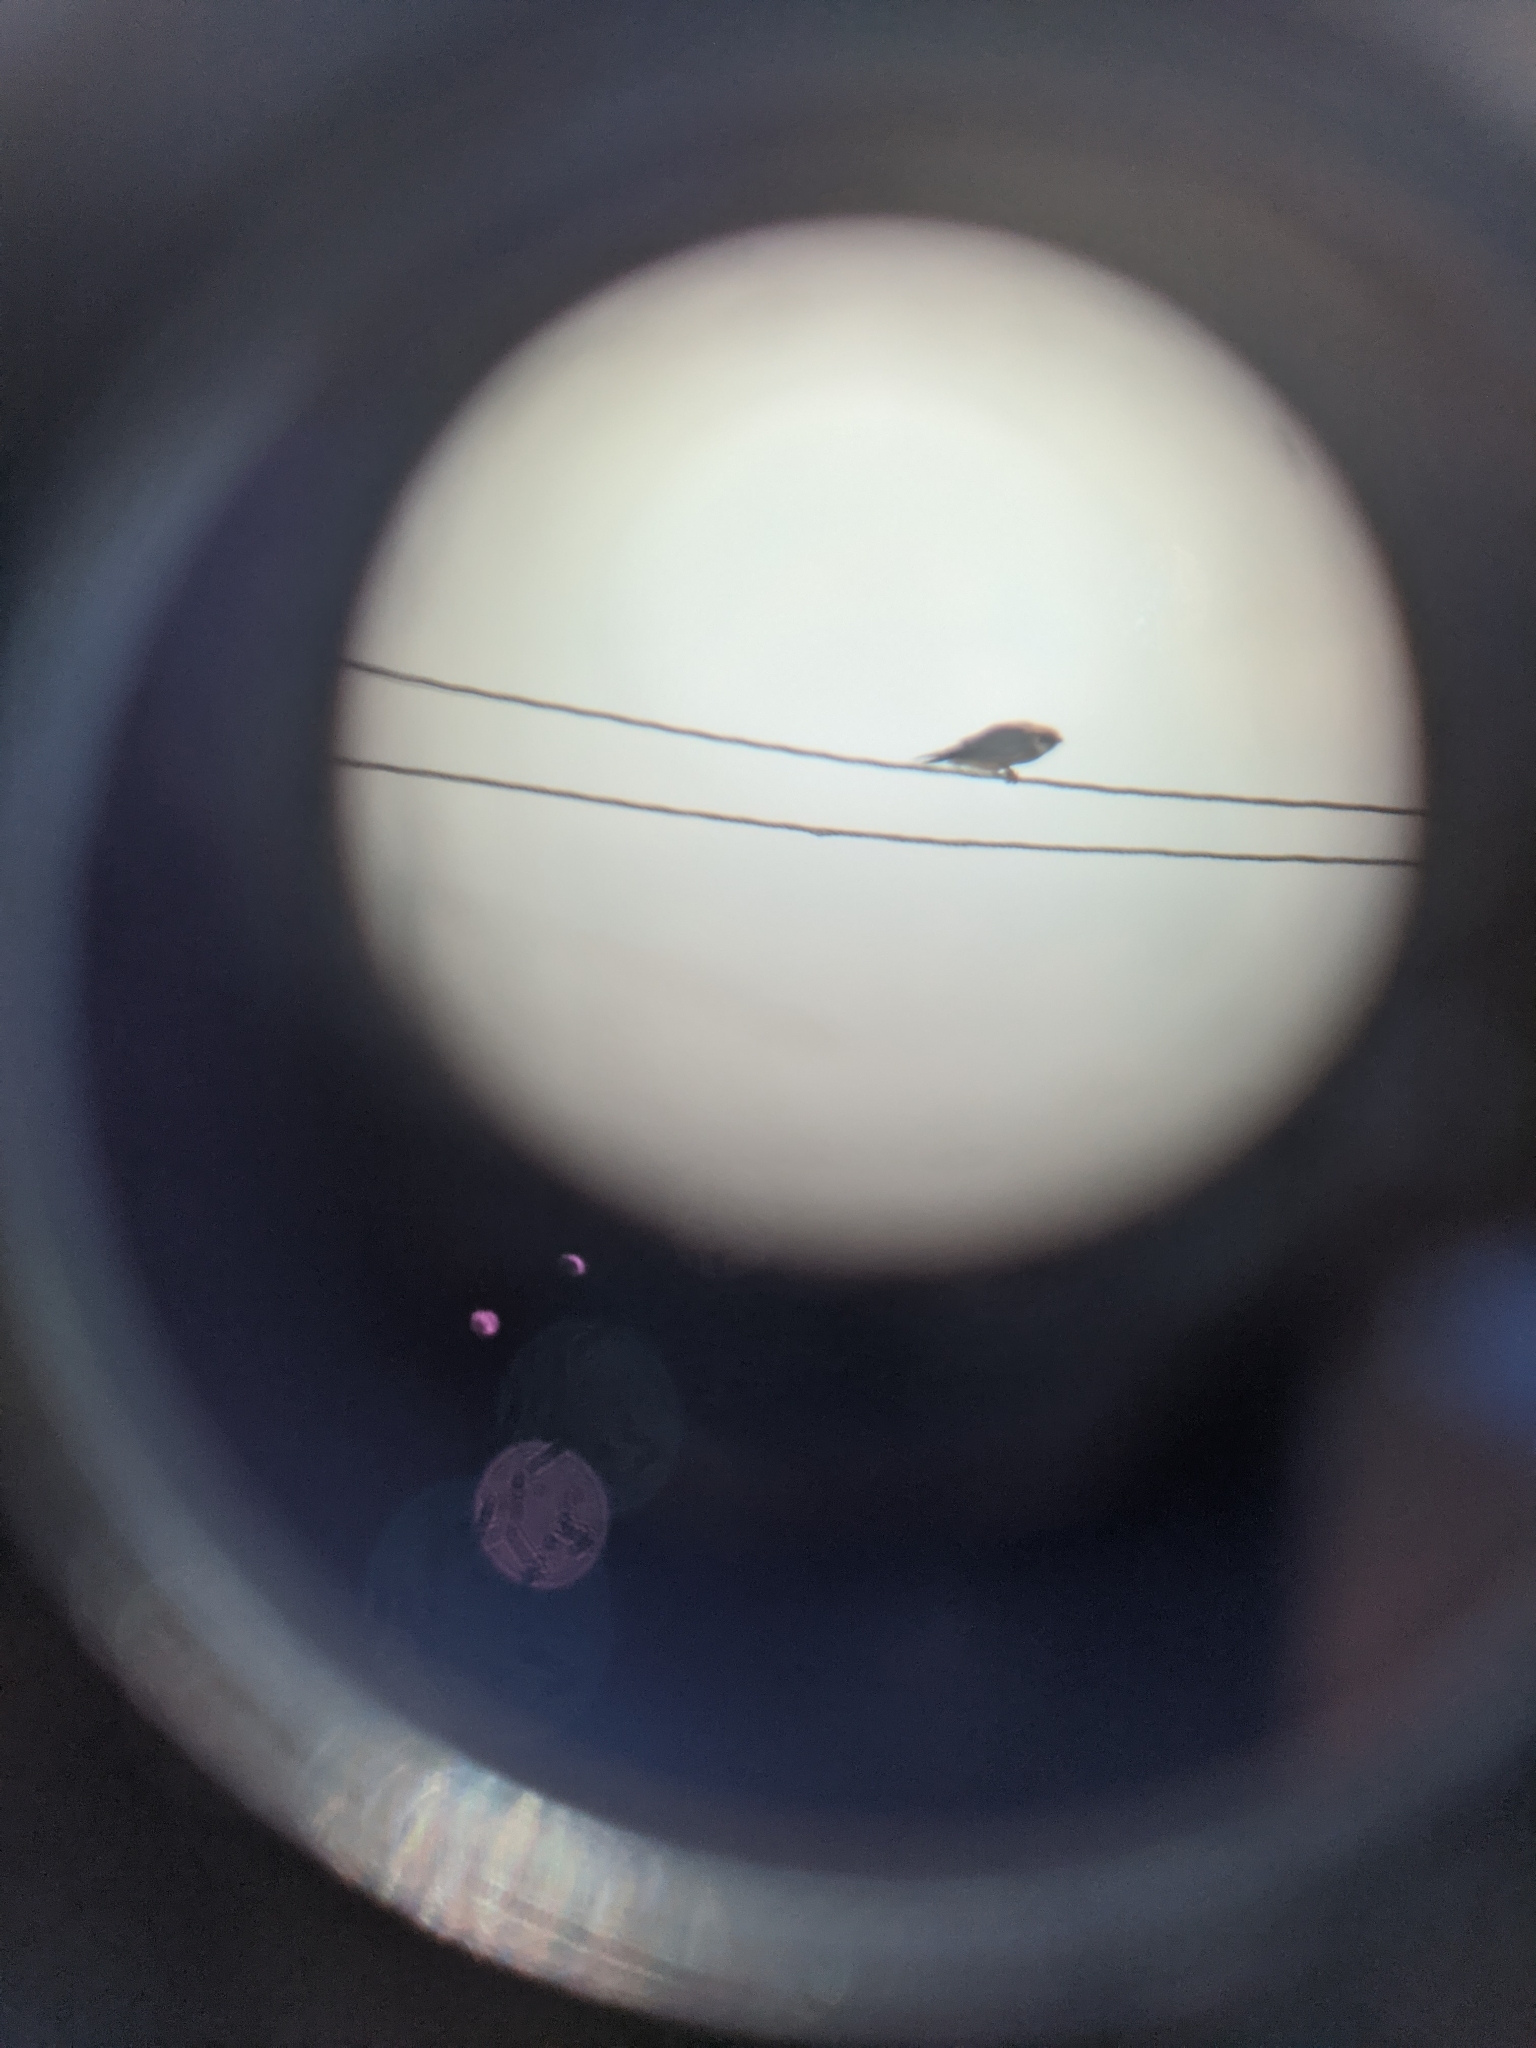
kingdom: Animalia
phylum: Chordata
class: Aves
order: Falconiformes
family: Falconidae
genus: Falco
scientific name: Falco vespertinus
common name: Red-footed falcon
